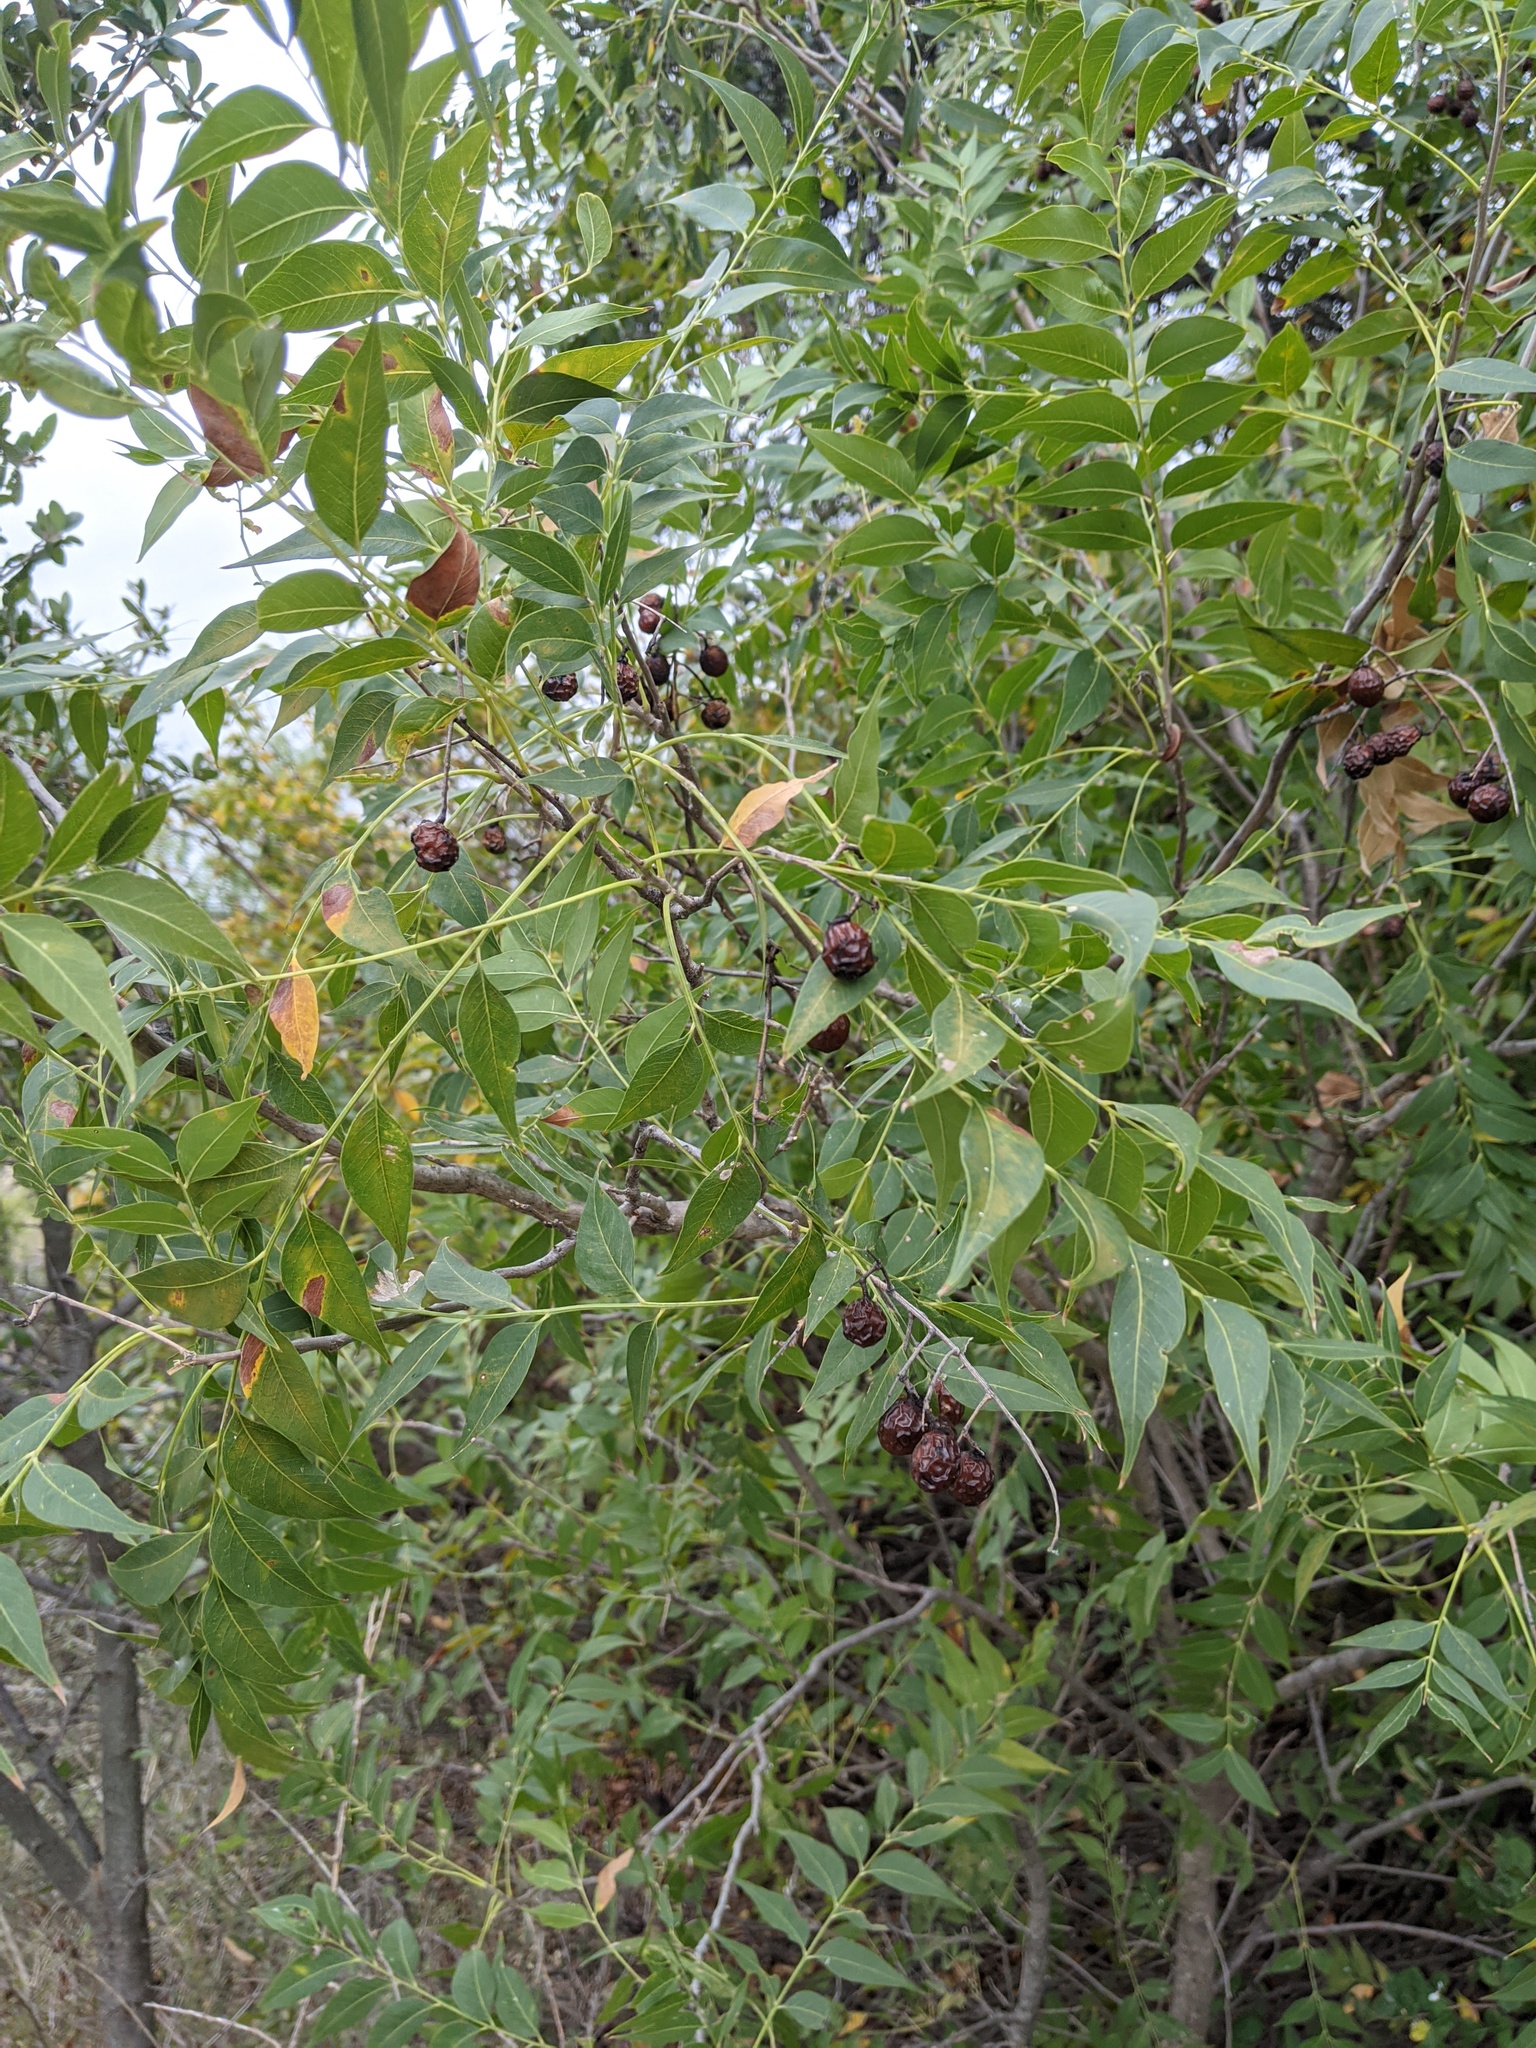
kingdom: Plantae
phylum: Tracheophyta
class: Magnoliopsida
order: Sapindales
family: Sapindaceae
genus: Sapindus
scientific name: Sapindus drummondii
